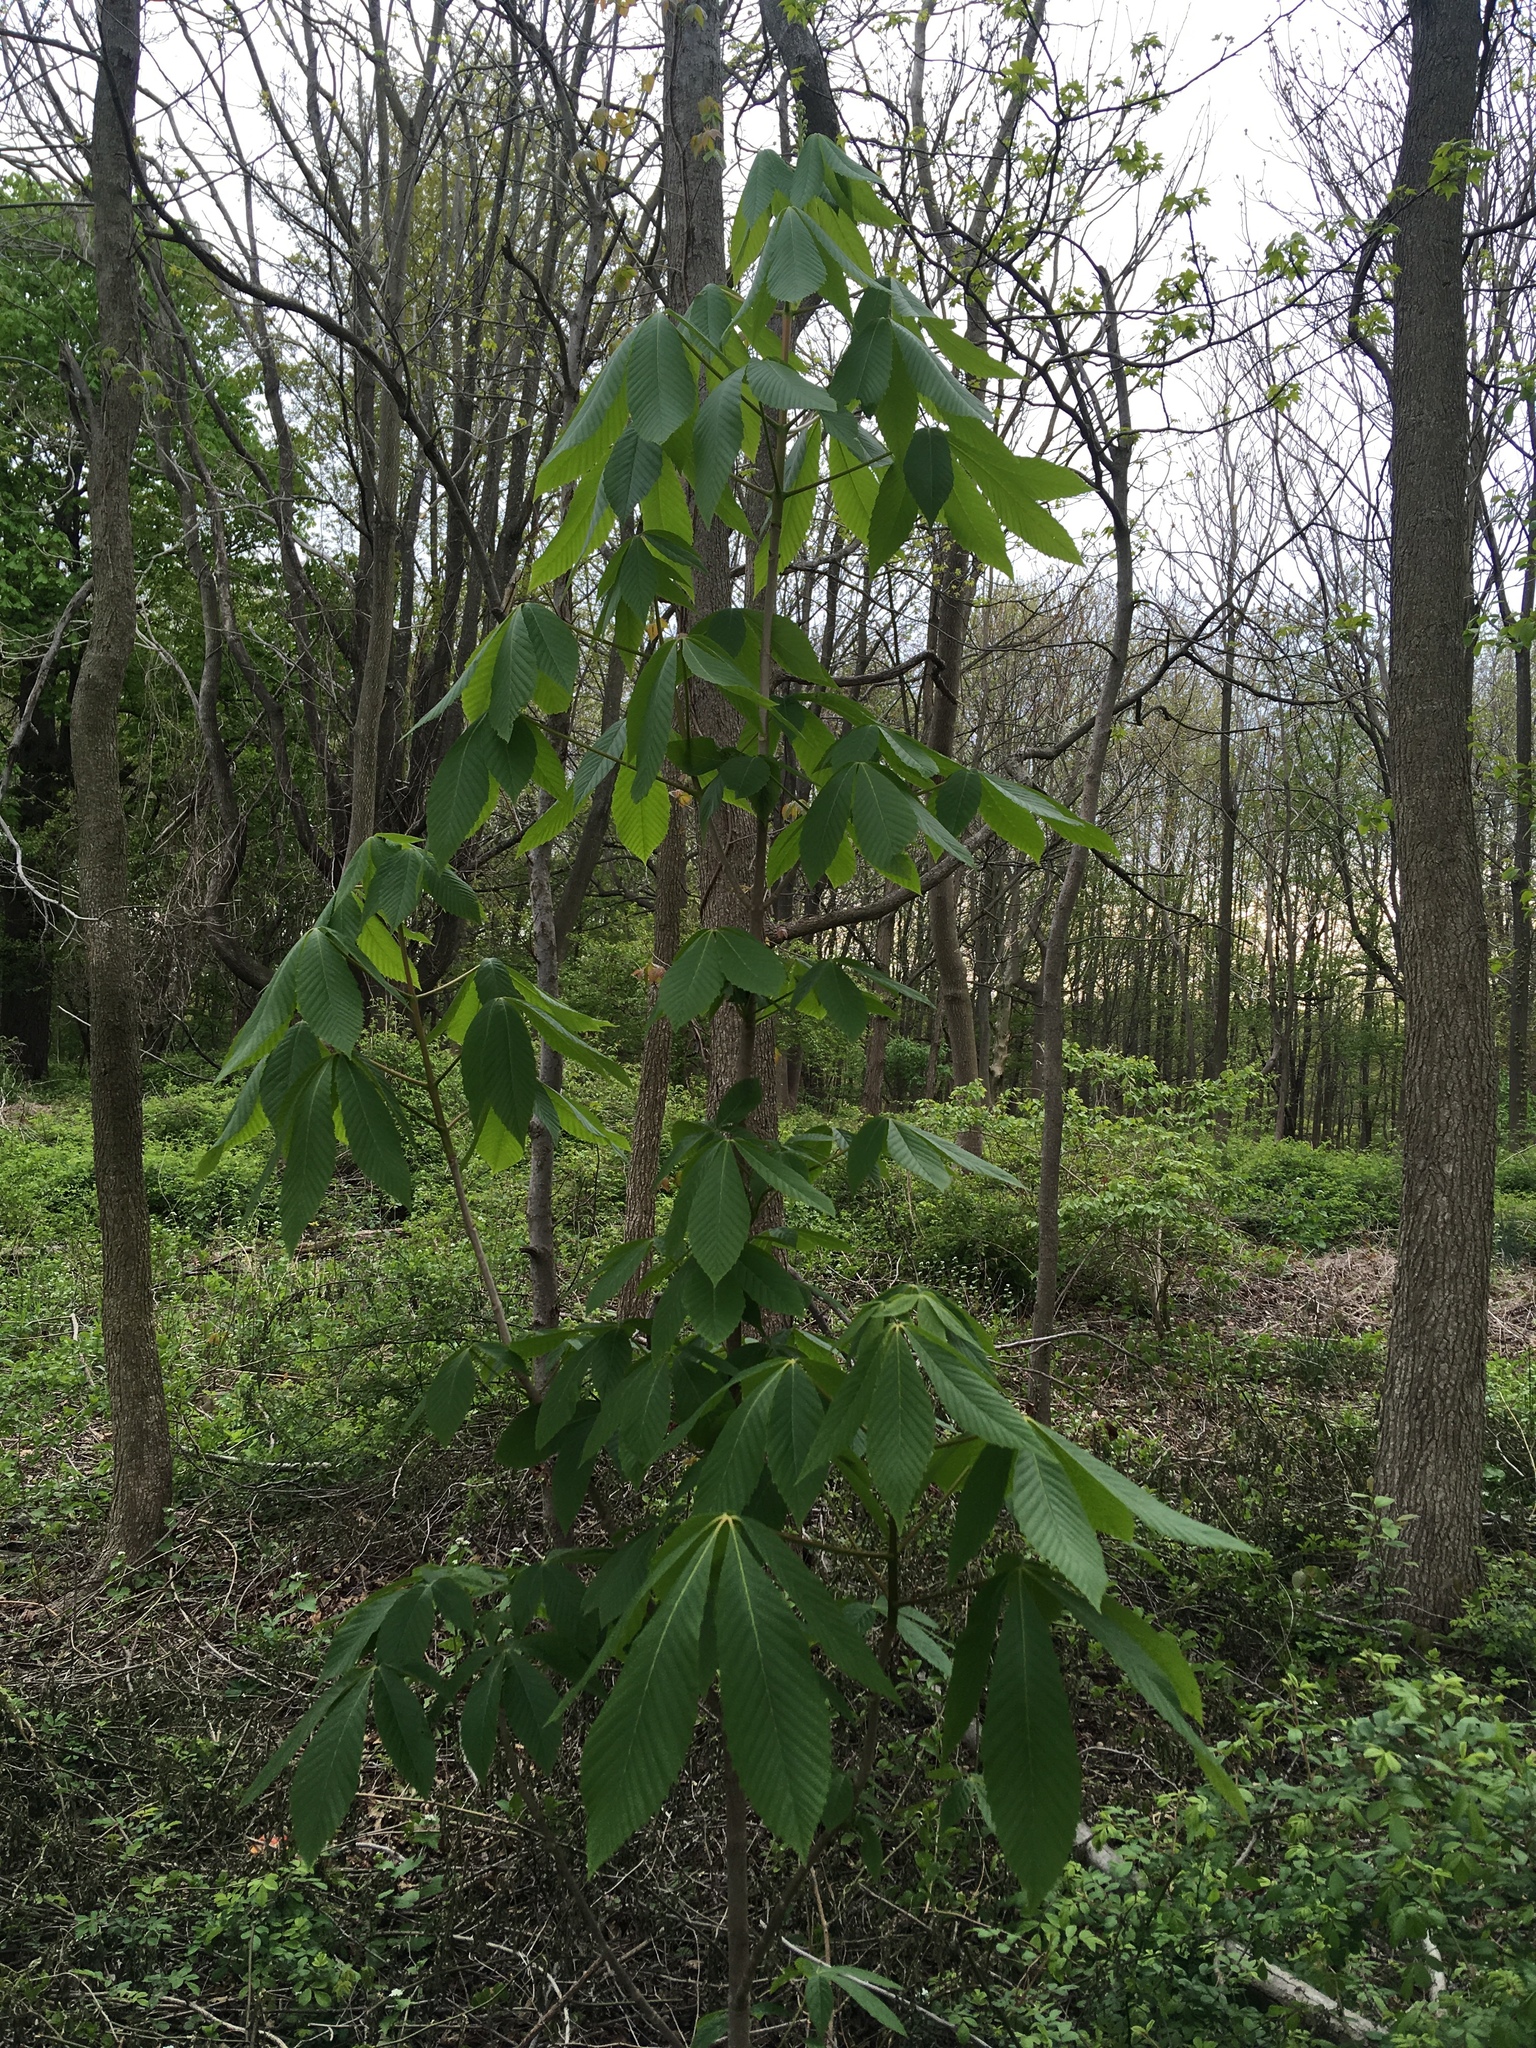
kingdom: Plantae
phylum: Tracheophyta
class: Magnoliopsida
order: Sapindales
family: Sapindaceae
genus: Aesculus
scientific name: Aesculus glabra
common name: Ohio buckeye
